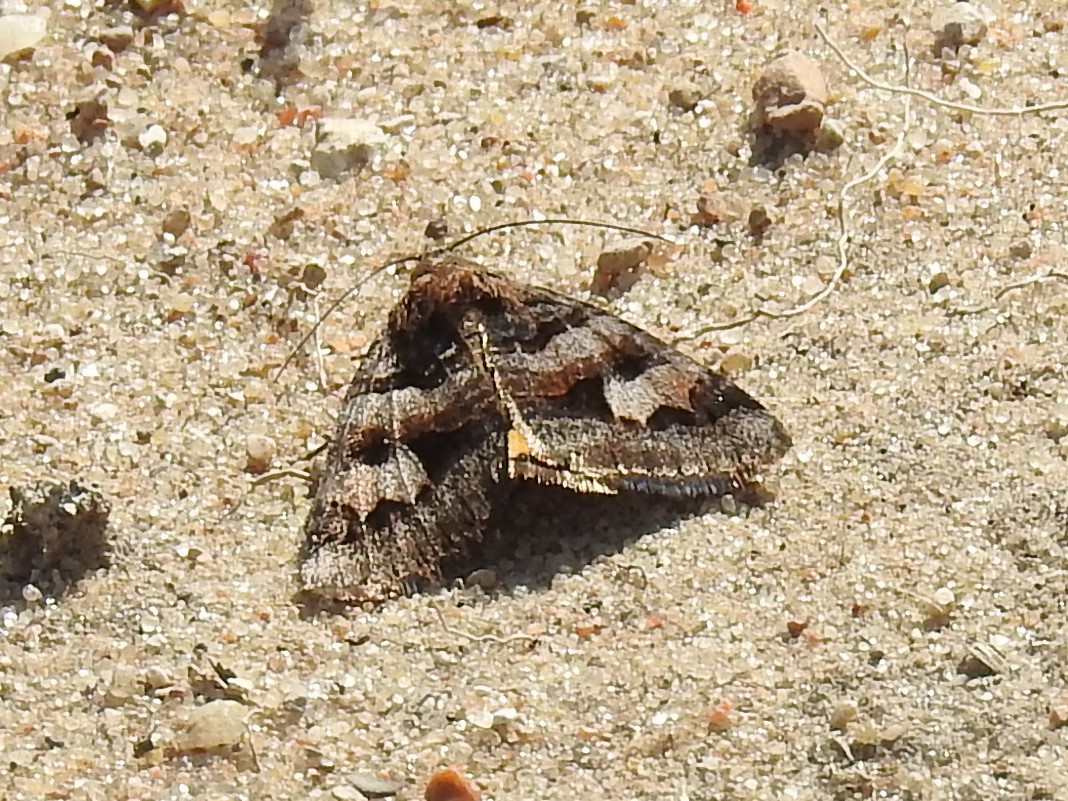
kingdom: Animalia
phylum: Arthropoda
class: Insecta
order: Lepidoptera
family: Erebidae
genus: Drasteria
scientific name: Drasteria adumbrata
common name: Shadowy arches
